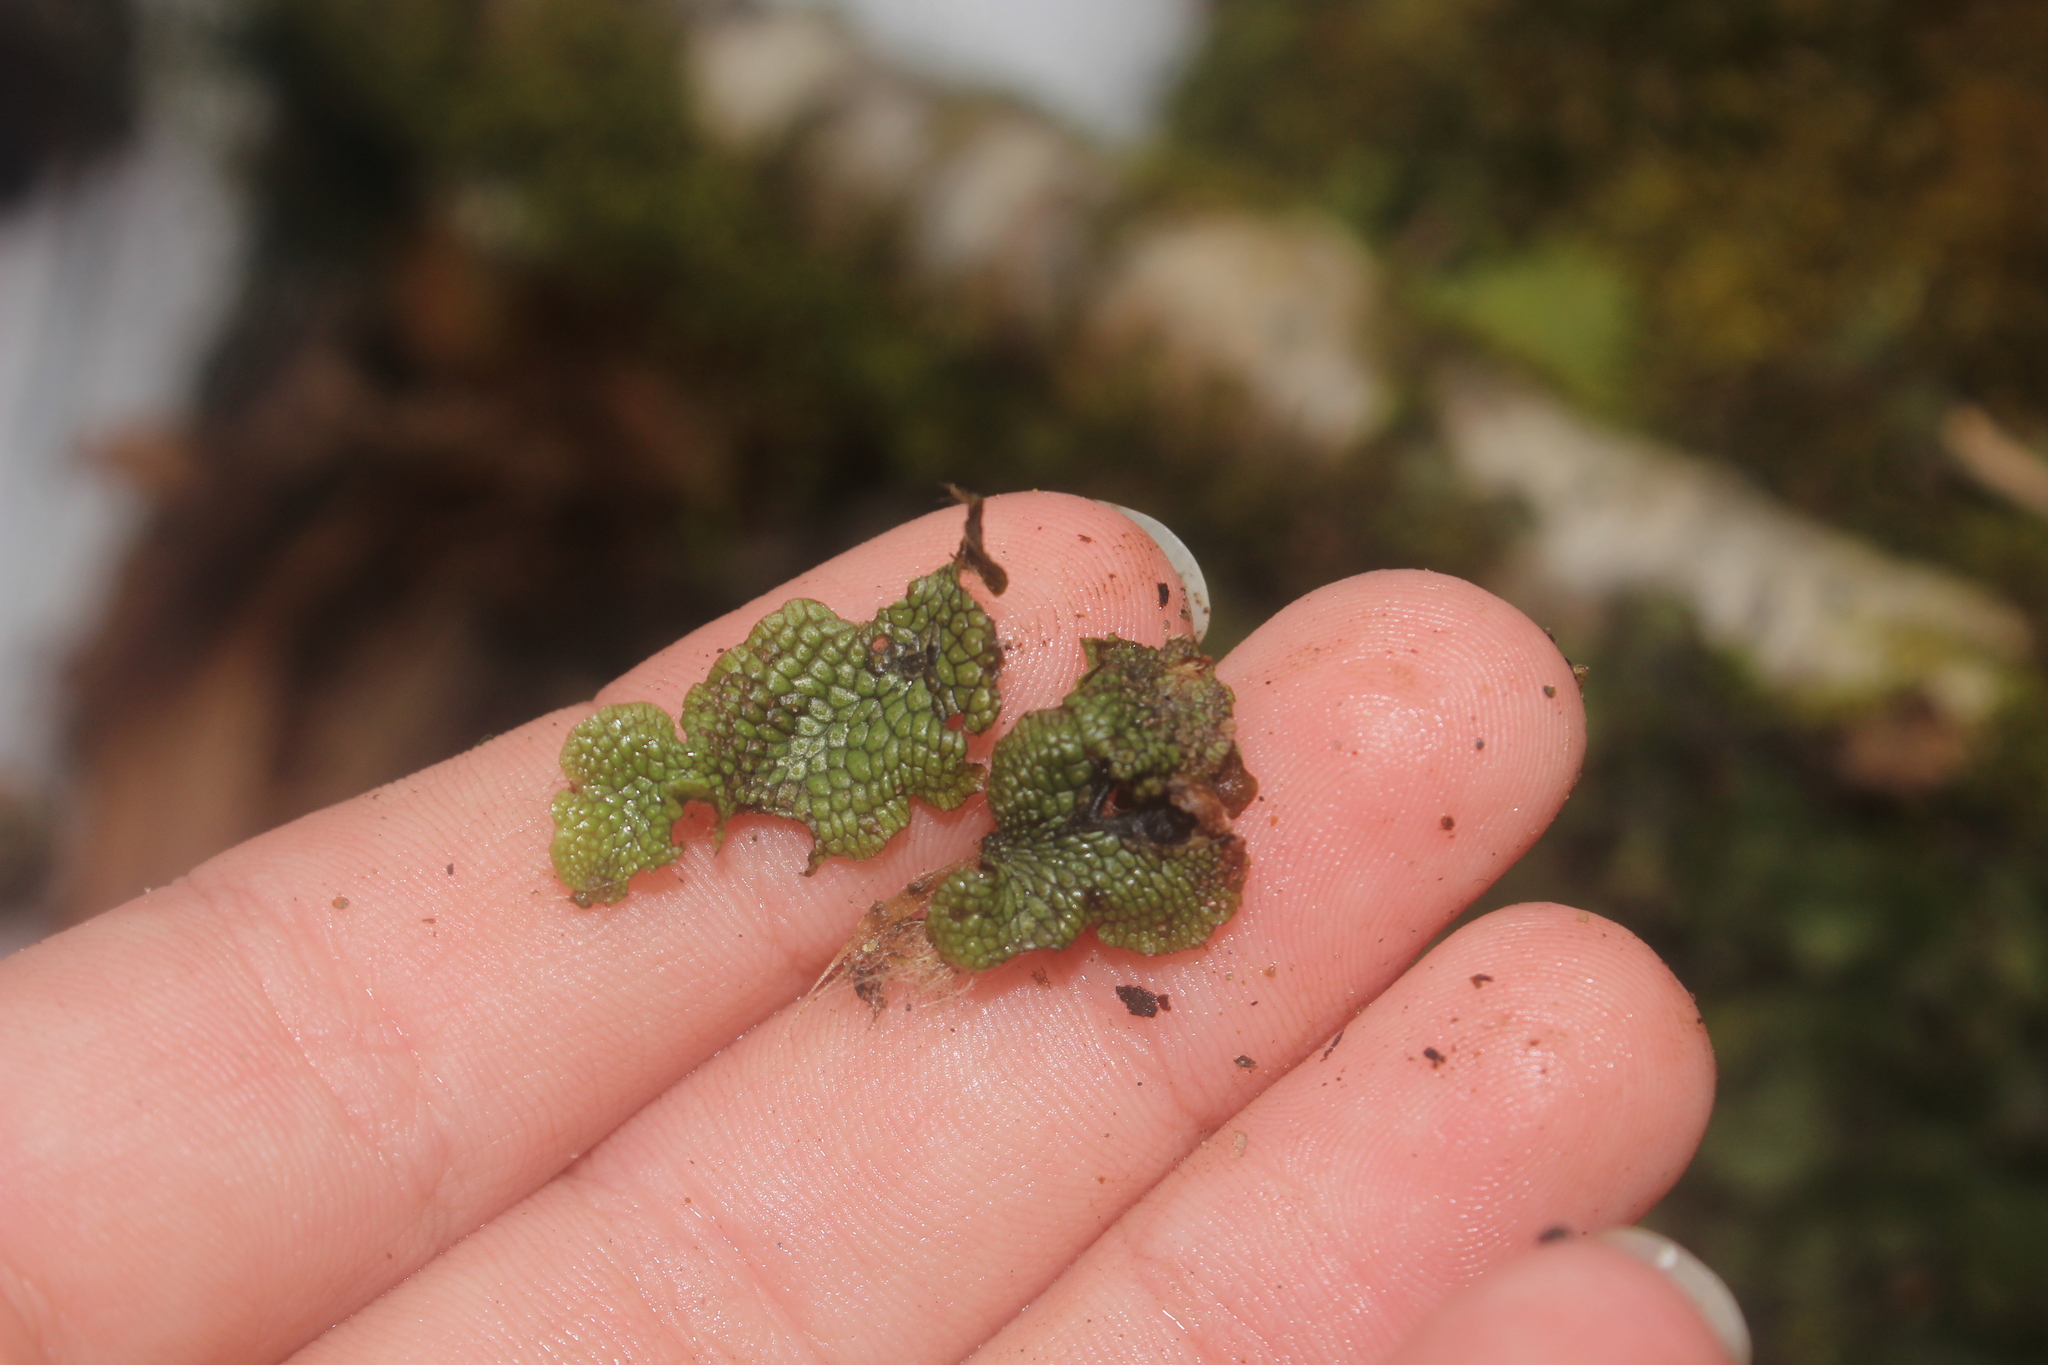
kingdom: Plantae
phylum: Marchantiophyta
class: Marchantiopsida
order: Marchantiales
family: Conocephalaceae
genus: Conocephalum
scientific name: Conocephalum salebrosum
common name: Cat-tongue liverwort
